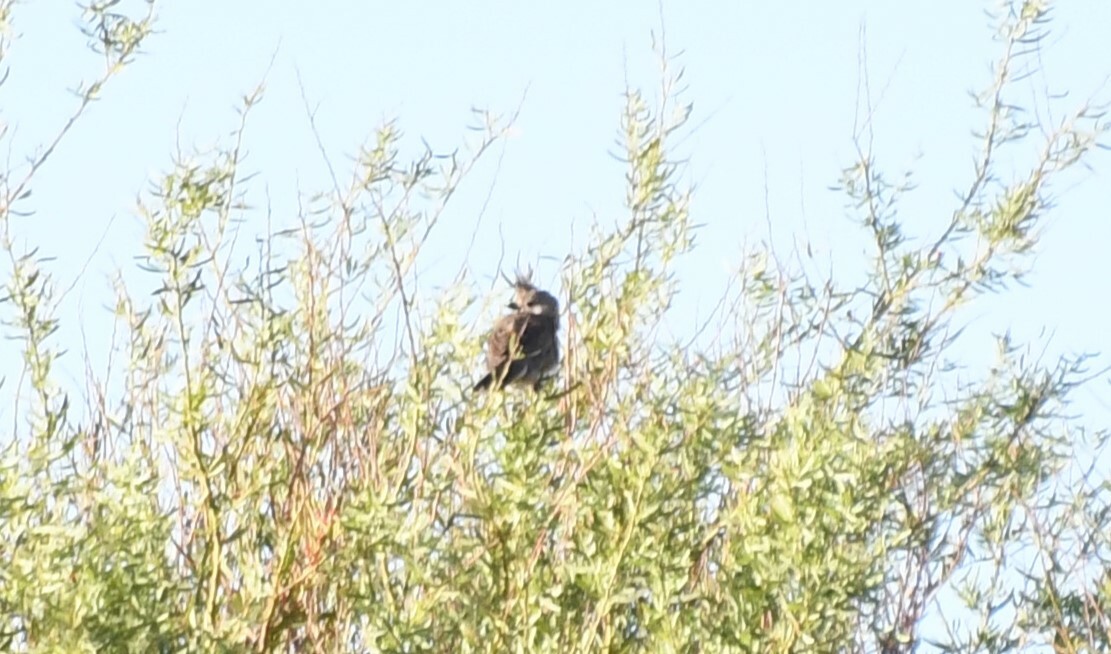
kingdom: Animalia
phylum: Chordata
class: Aves
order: Passeriformes
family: Psophodidae
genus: Psophodes
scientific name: Psophodes cristatus
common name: Chirruping wedgebill
